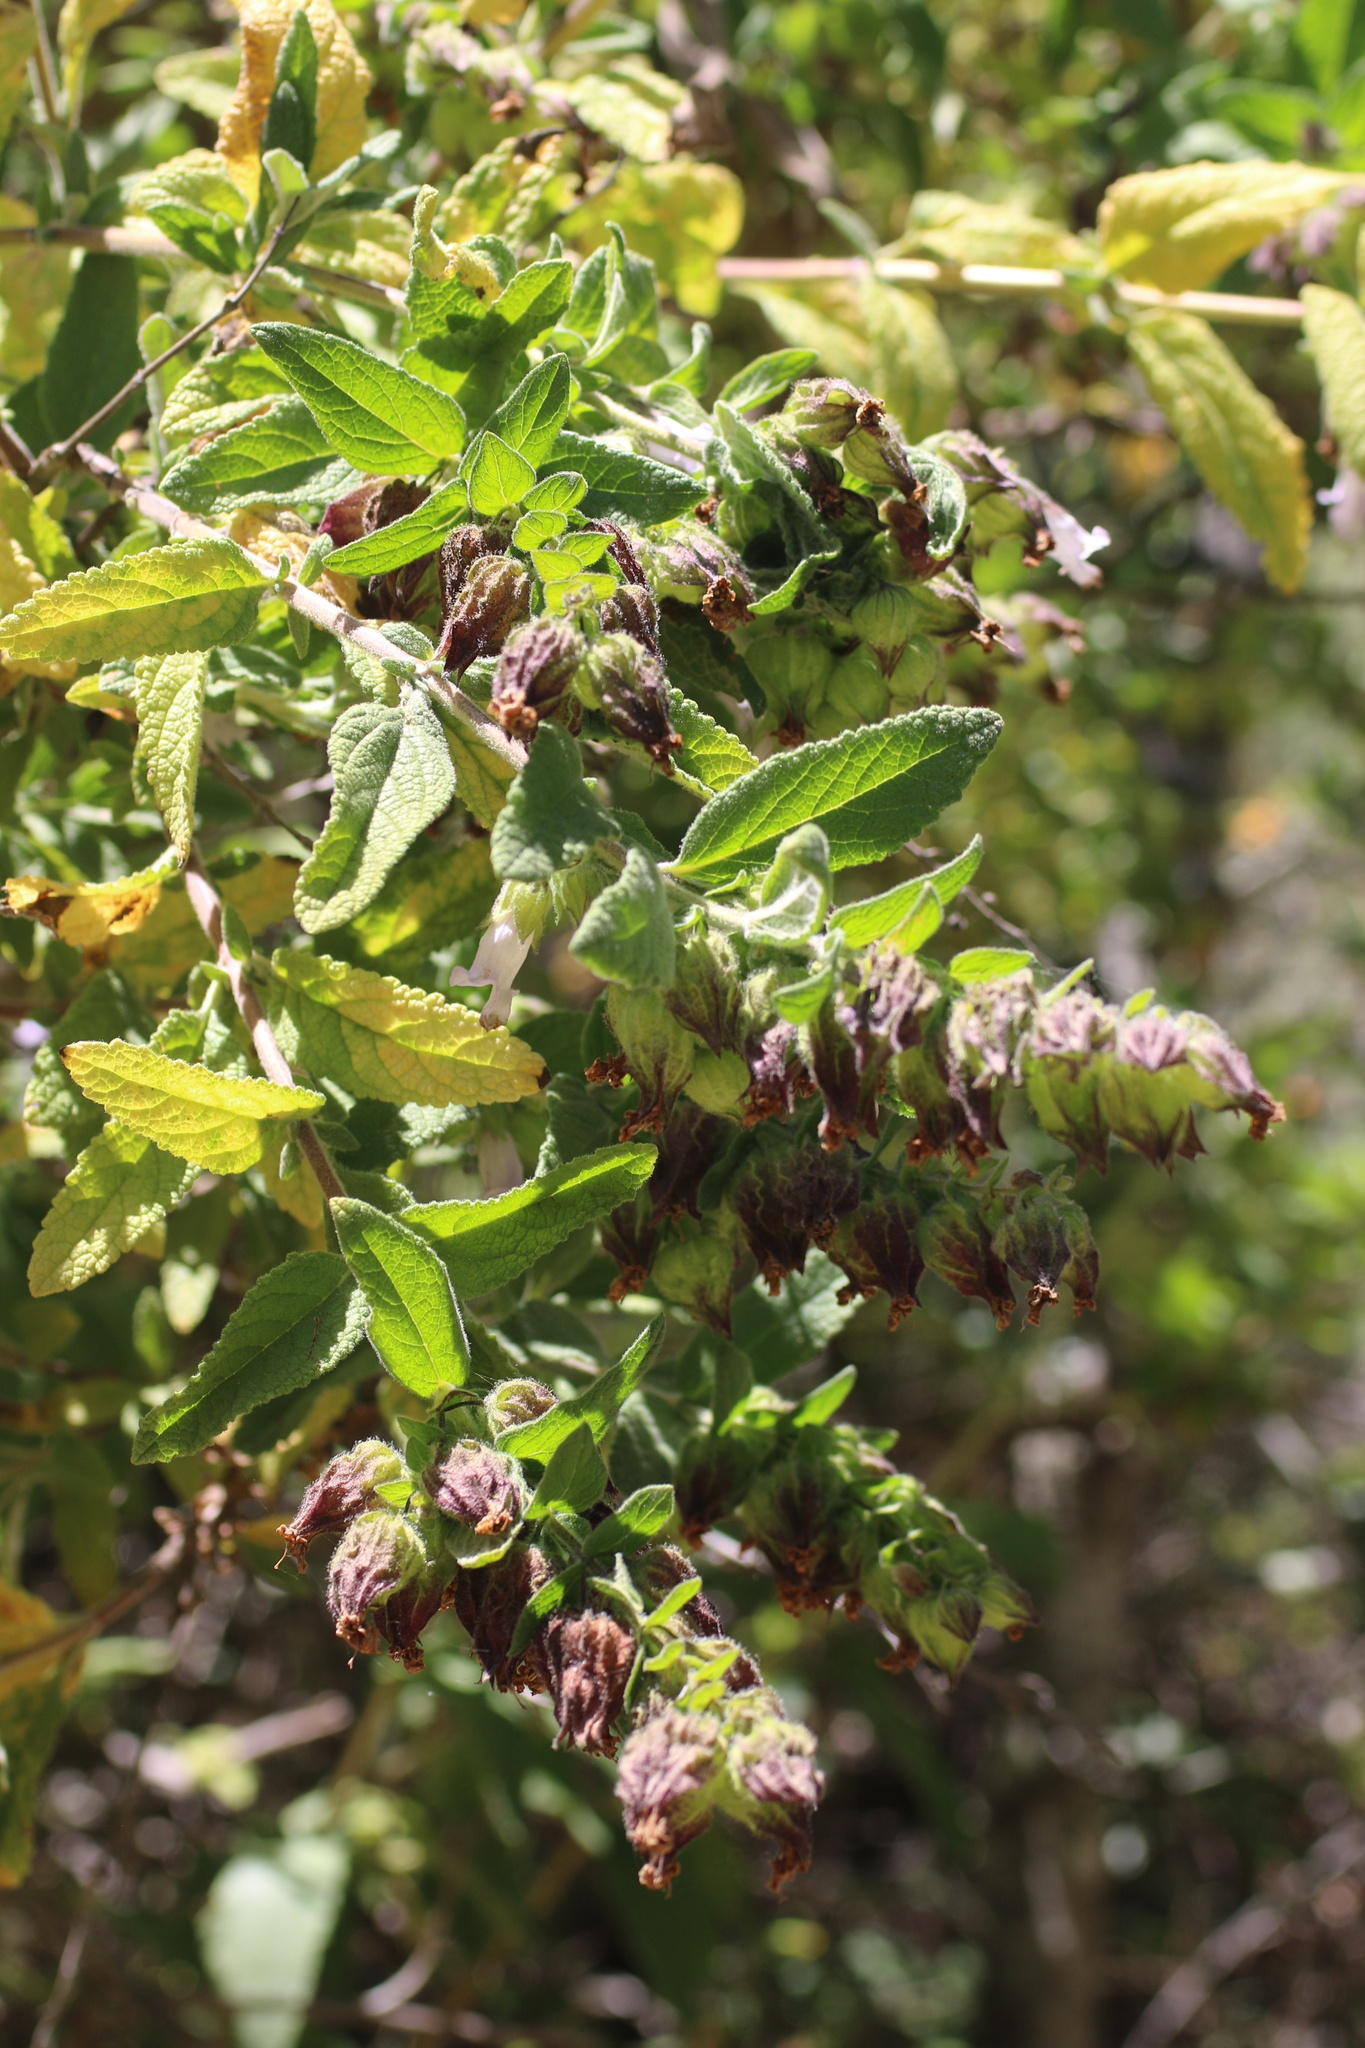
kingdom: Plantae
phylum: Tracheophyta
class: Magnoliopsida
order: Lamiales
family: Lamiaceae
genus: Lepechinia
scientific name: Lepechinia calycina
